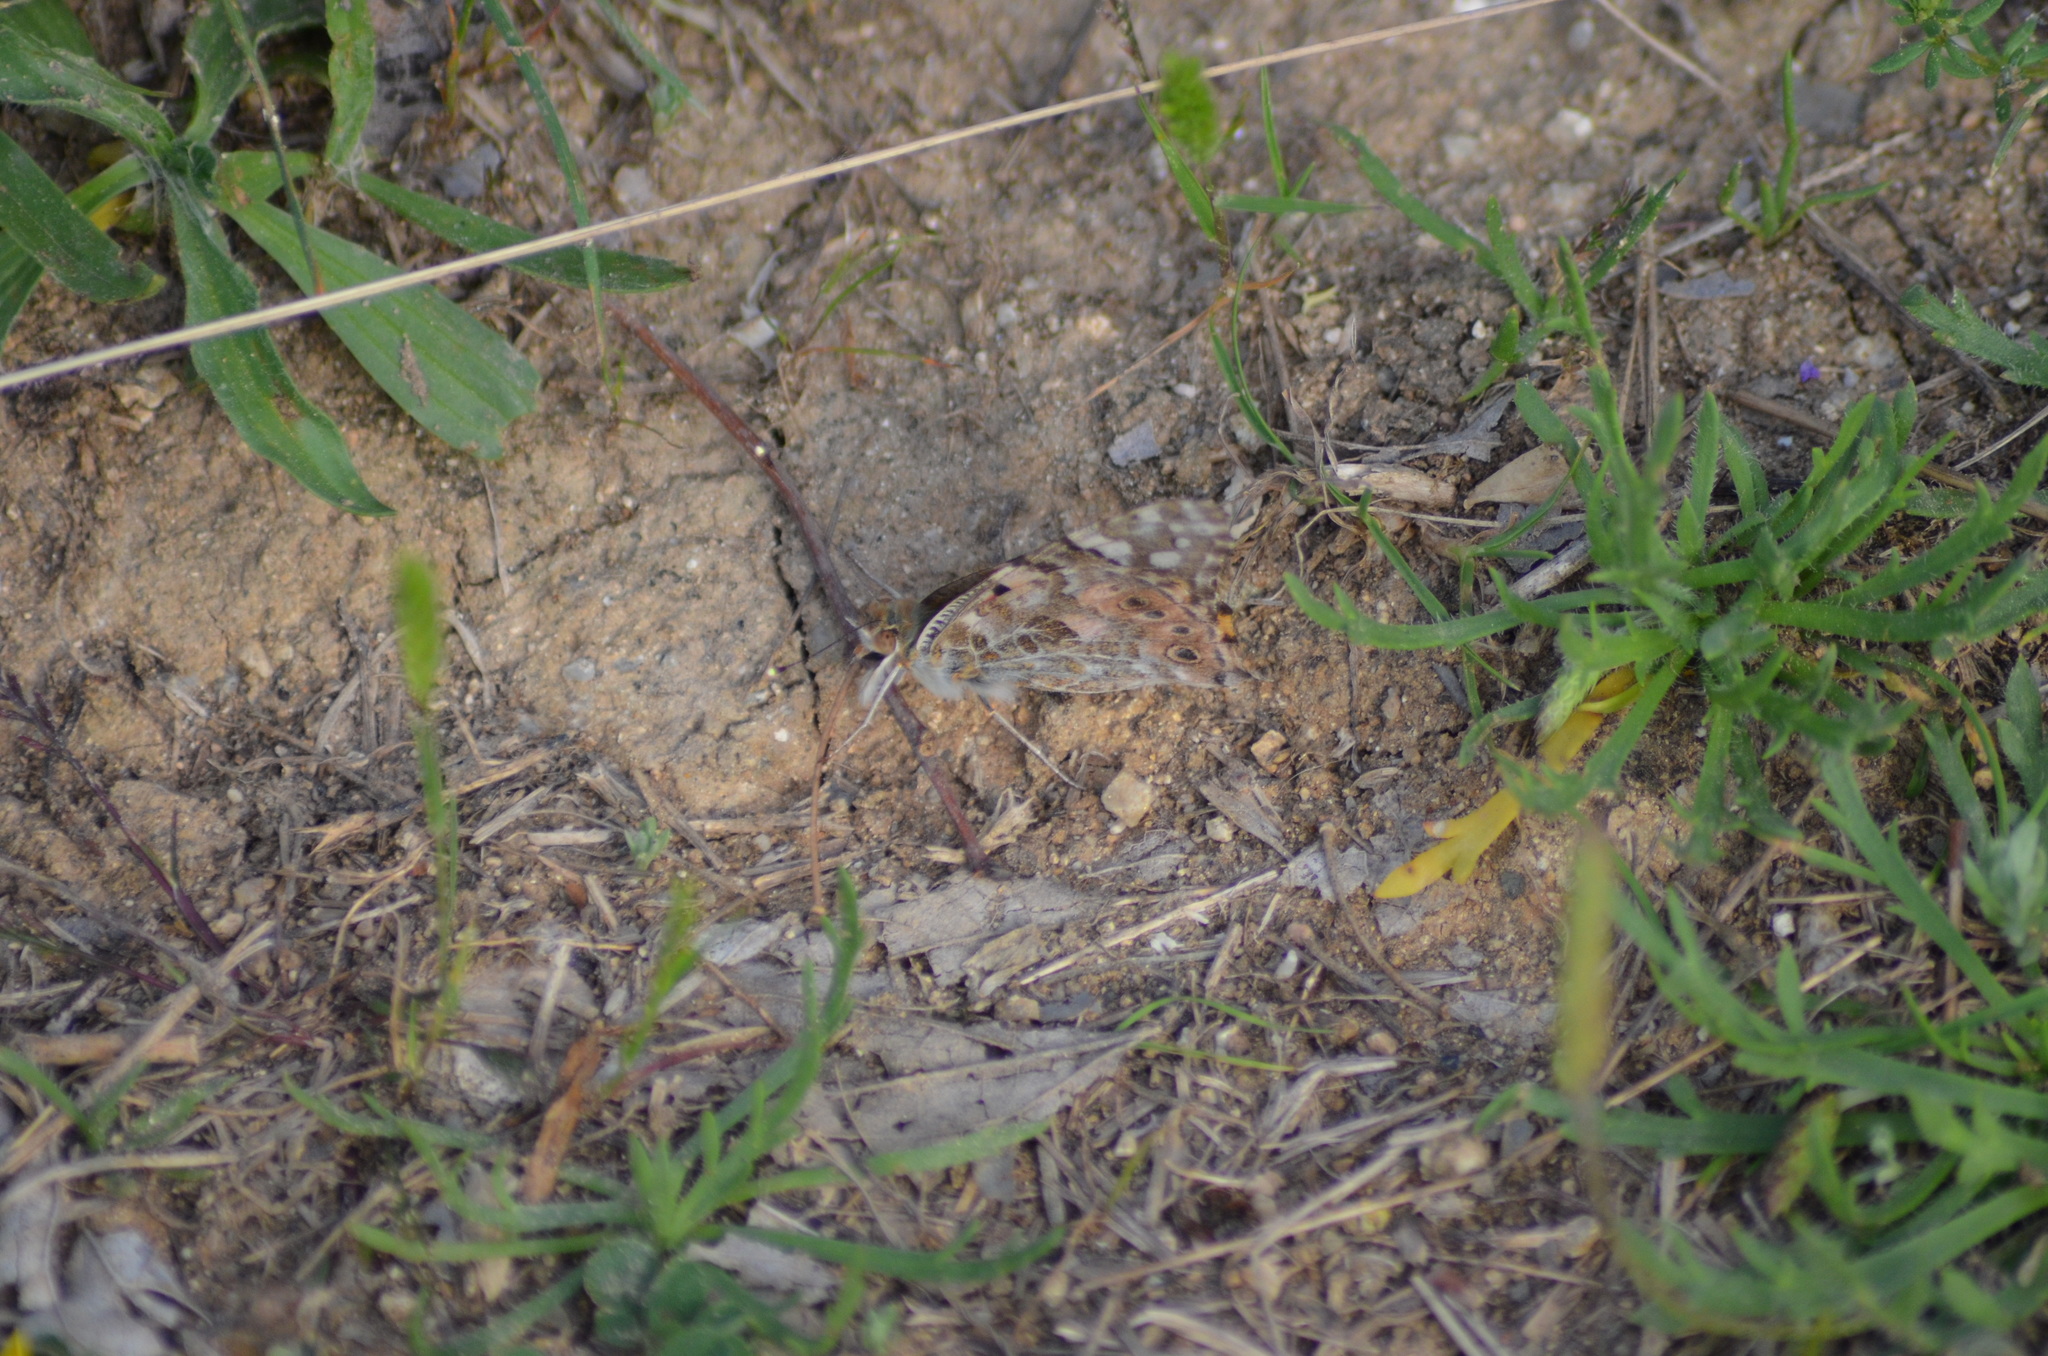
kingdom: Animalia
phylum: Arthropoda
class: Insecta
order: Lepidoptera
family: Nymphalidae
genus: Vanessa
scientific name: Vanessa cardui
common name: Painted lady
